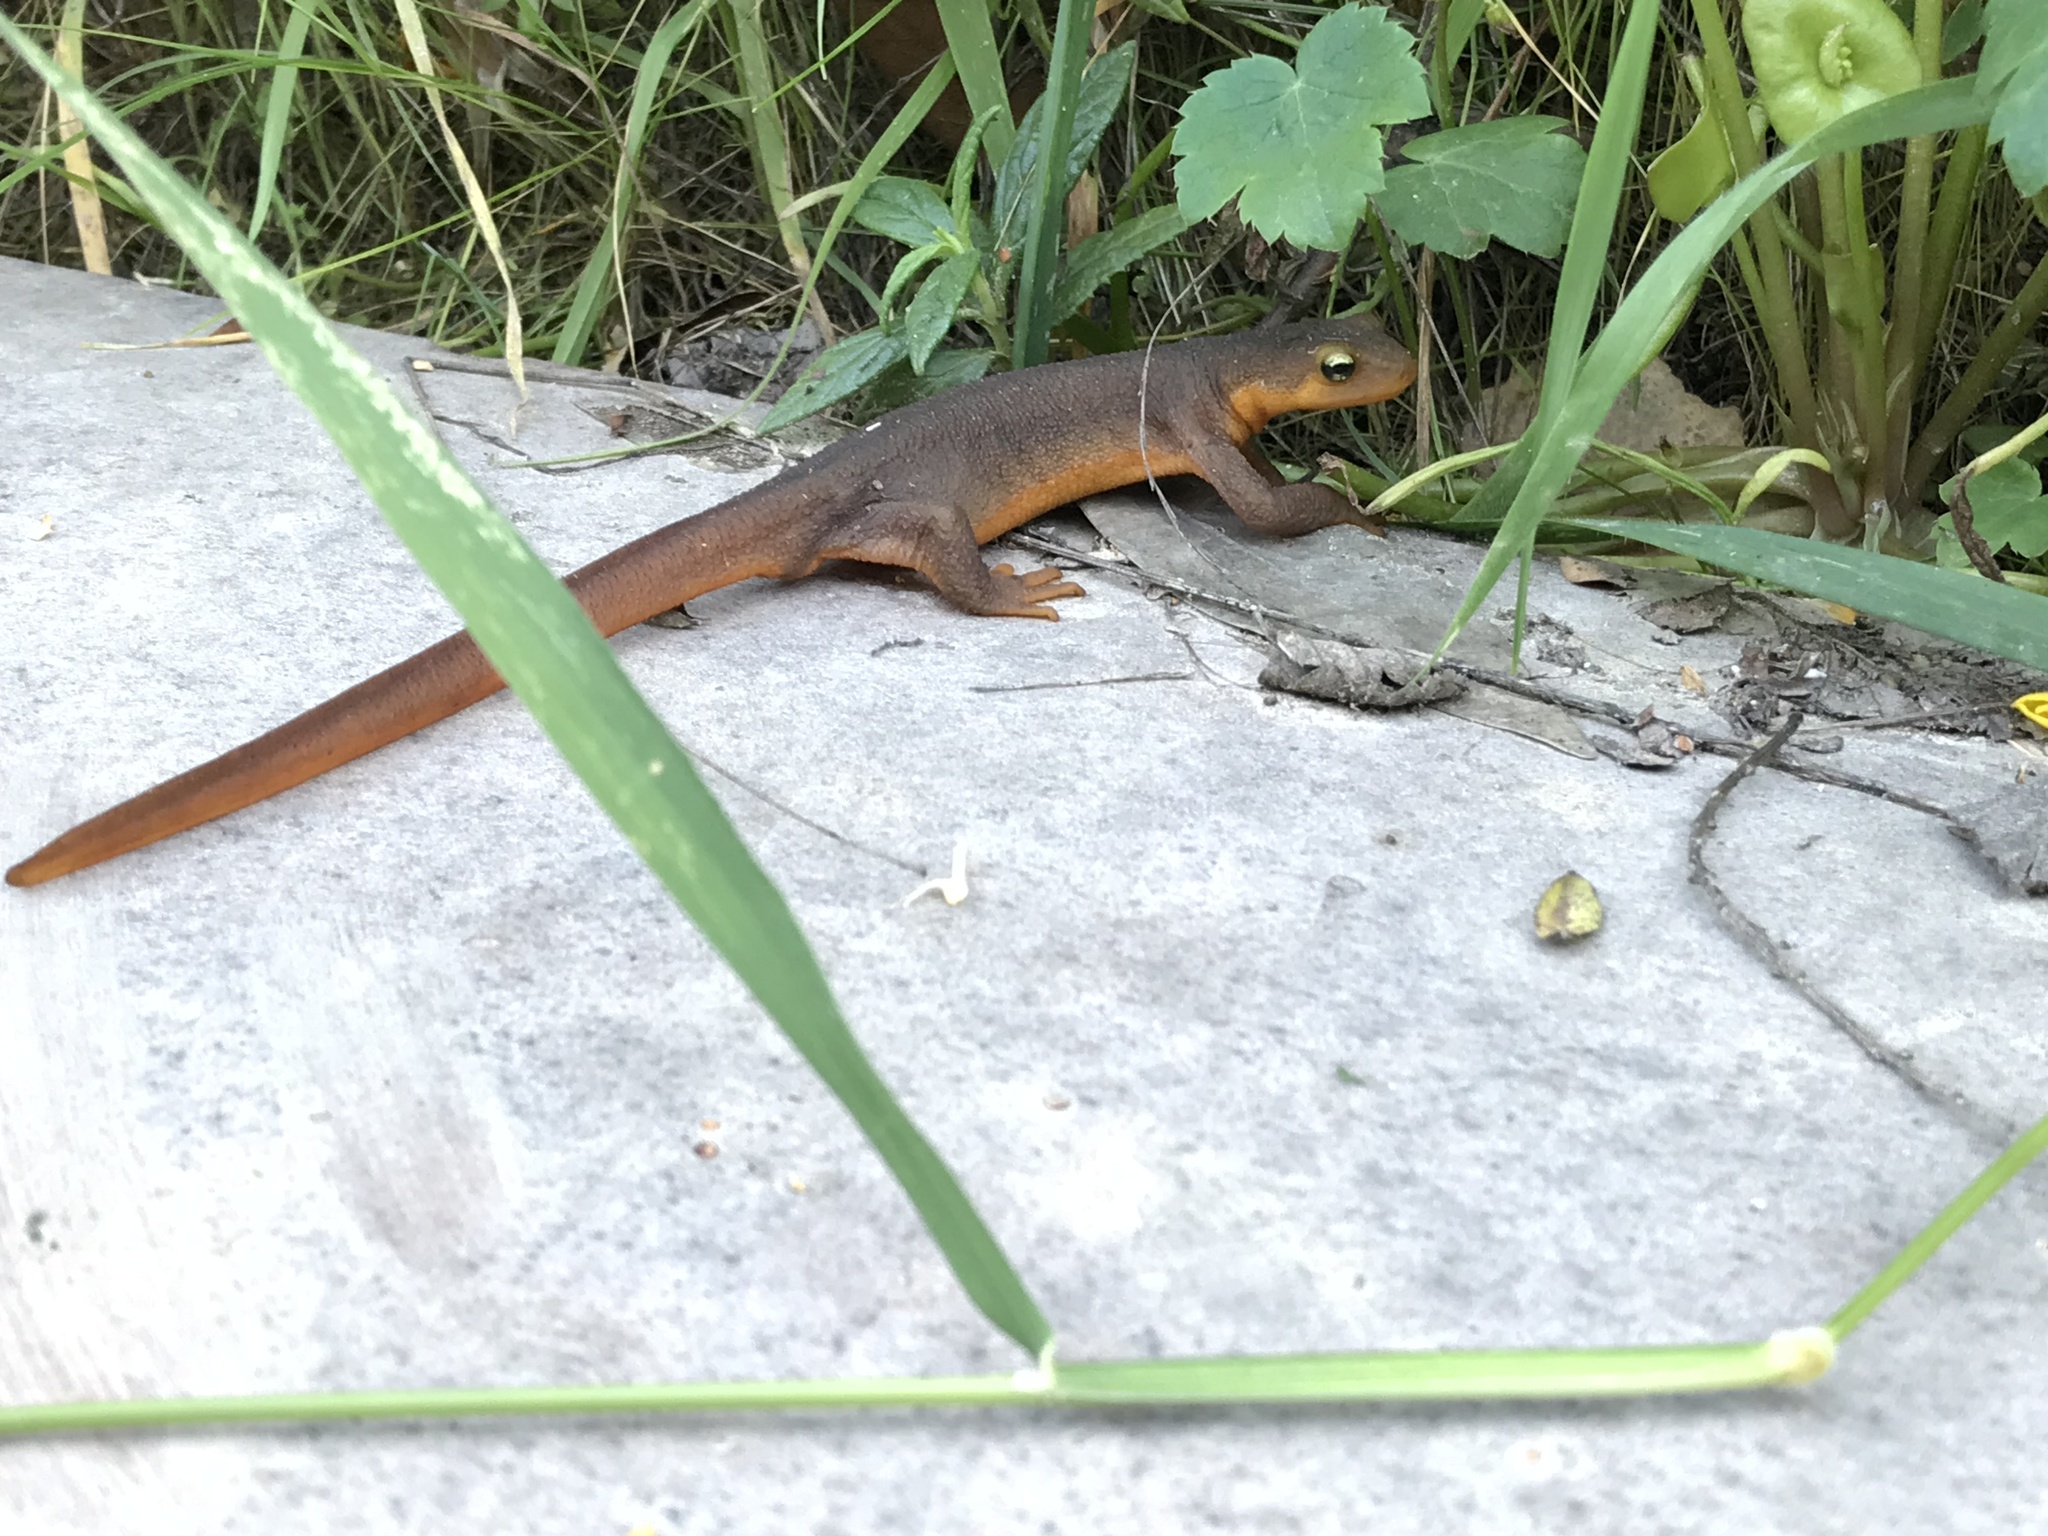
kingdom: Animalia
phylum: Chordata
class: Amphibia
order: Caudata
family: Salamandridae
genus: Taricha
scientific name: Taricha torosa
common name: California newt
